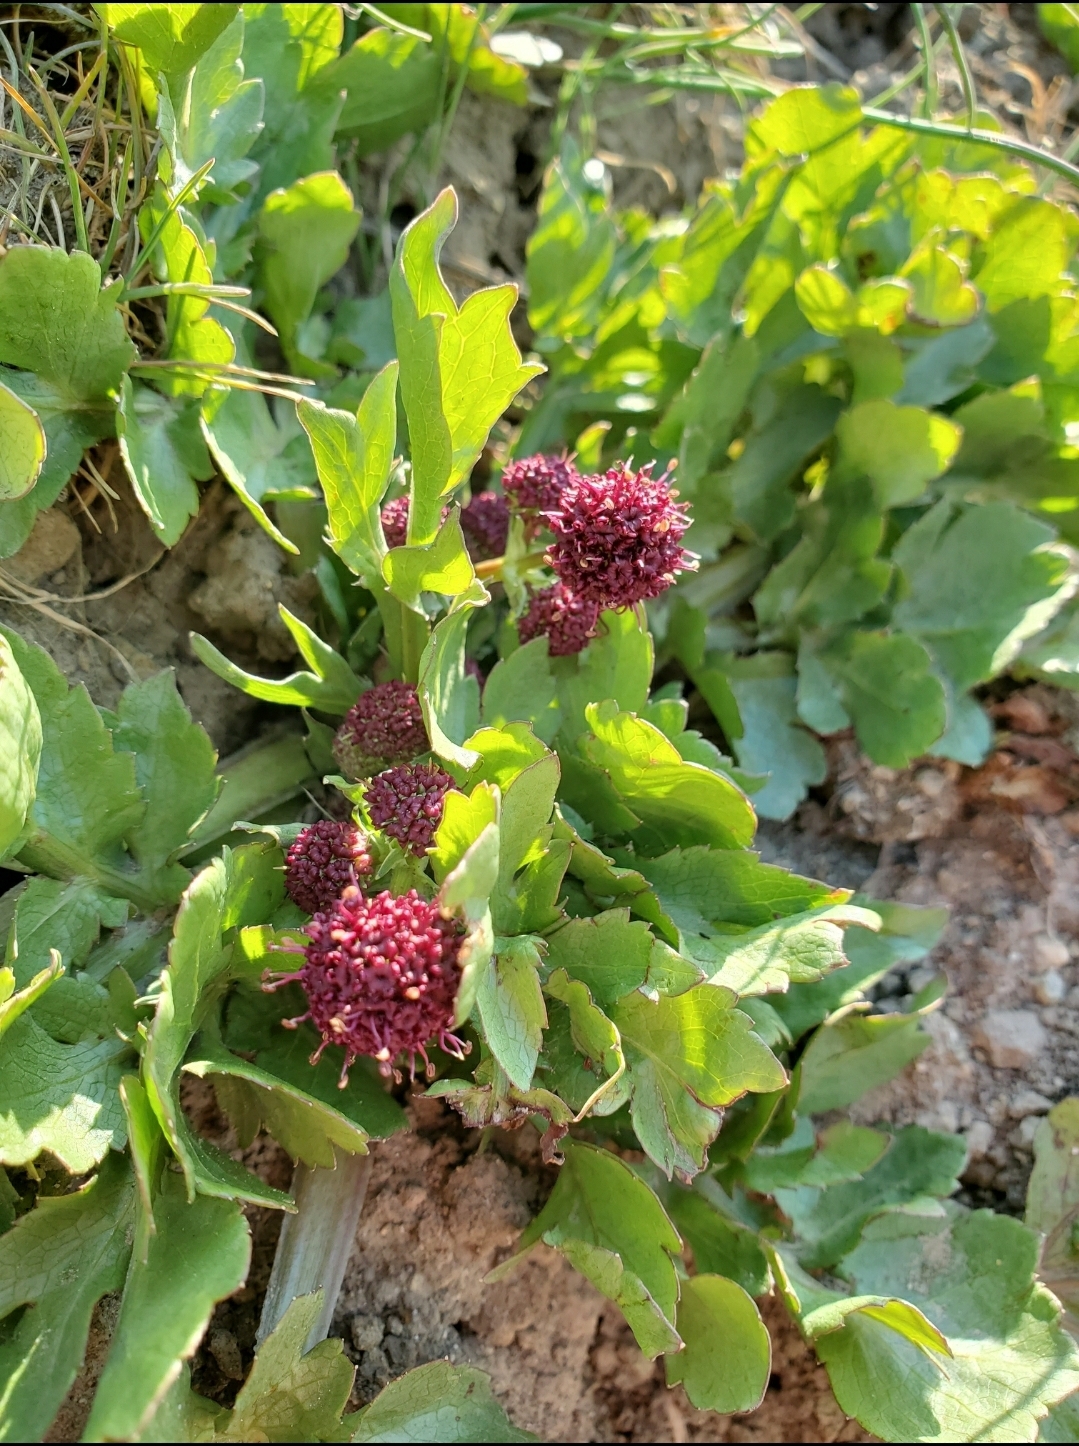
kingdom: Plantae
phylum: Tracheophyta
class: Magnoliopsida
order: Apiales
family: Apiaceae
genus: Sanicula
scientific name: Sanicula bipinnatifida
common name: Shoe-buttons
